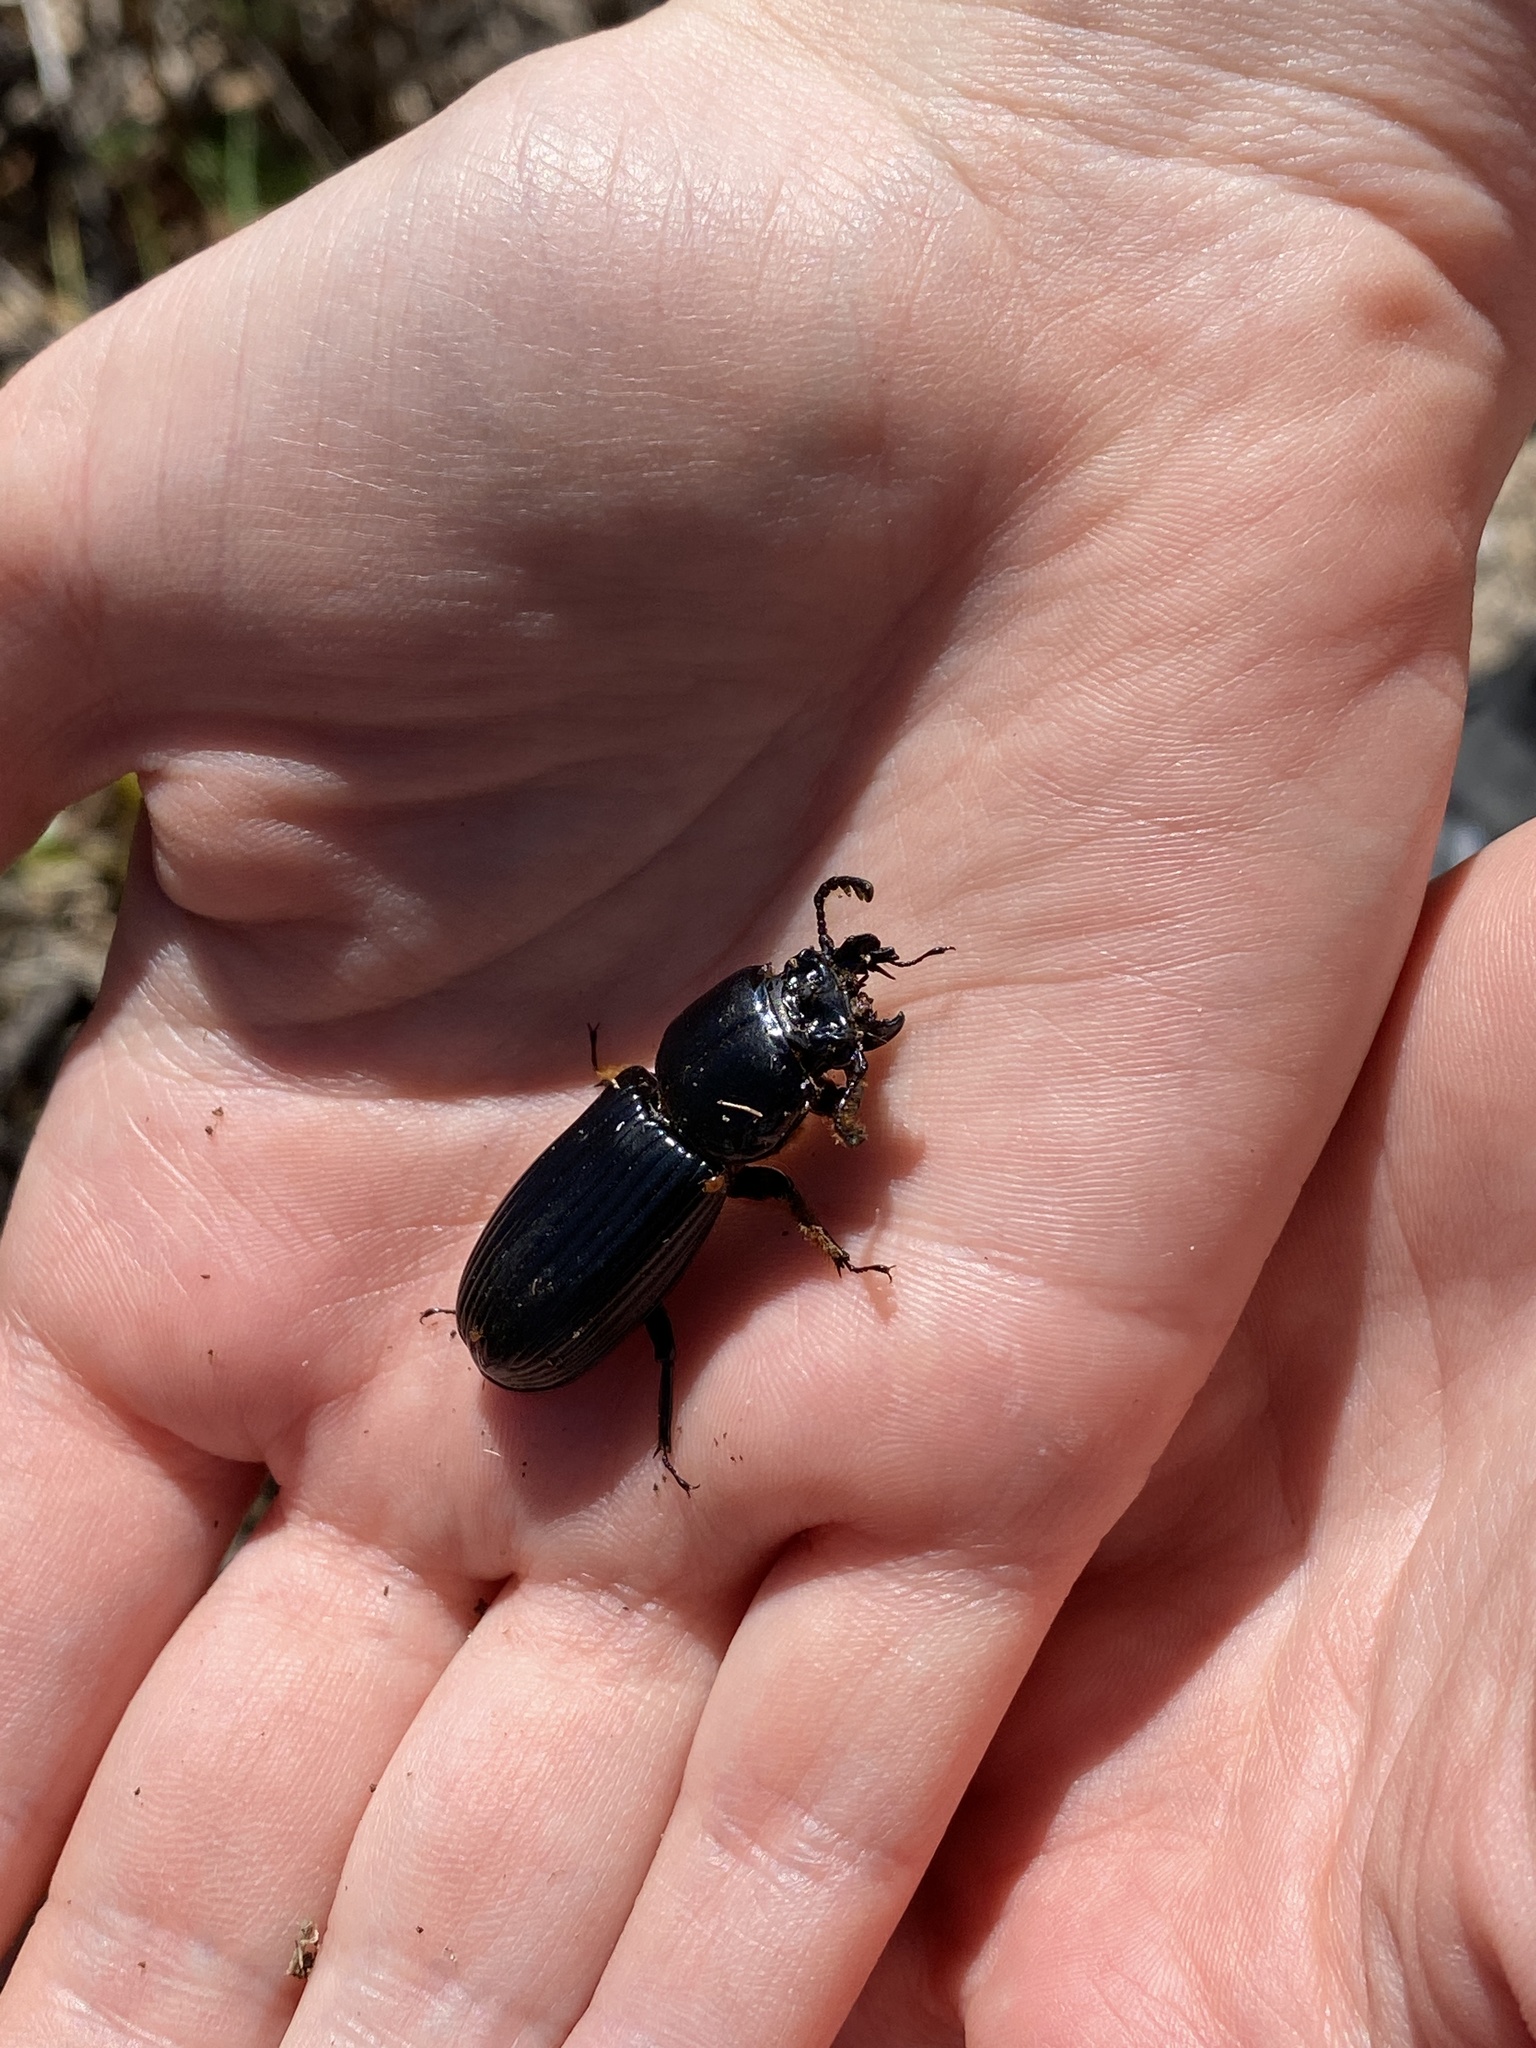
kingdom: Animalia
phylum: Arthropoda
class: Insecta
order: Coleoptera
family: Passalidae
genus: Odontotaenius
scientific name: Odontotaenius disjunctus
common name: Patent leather beetle
